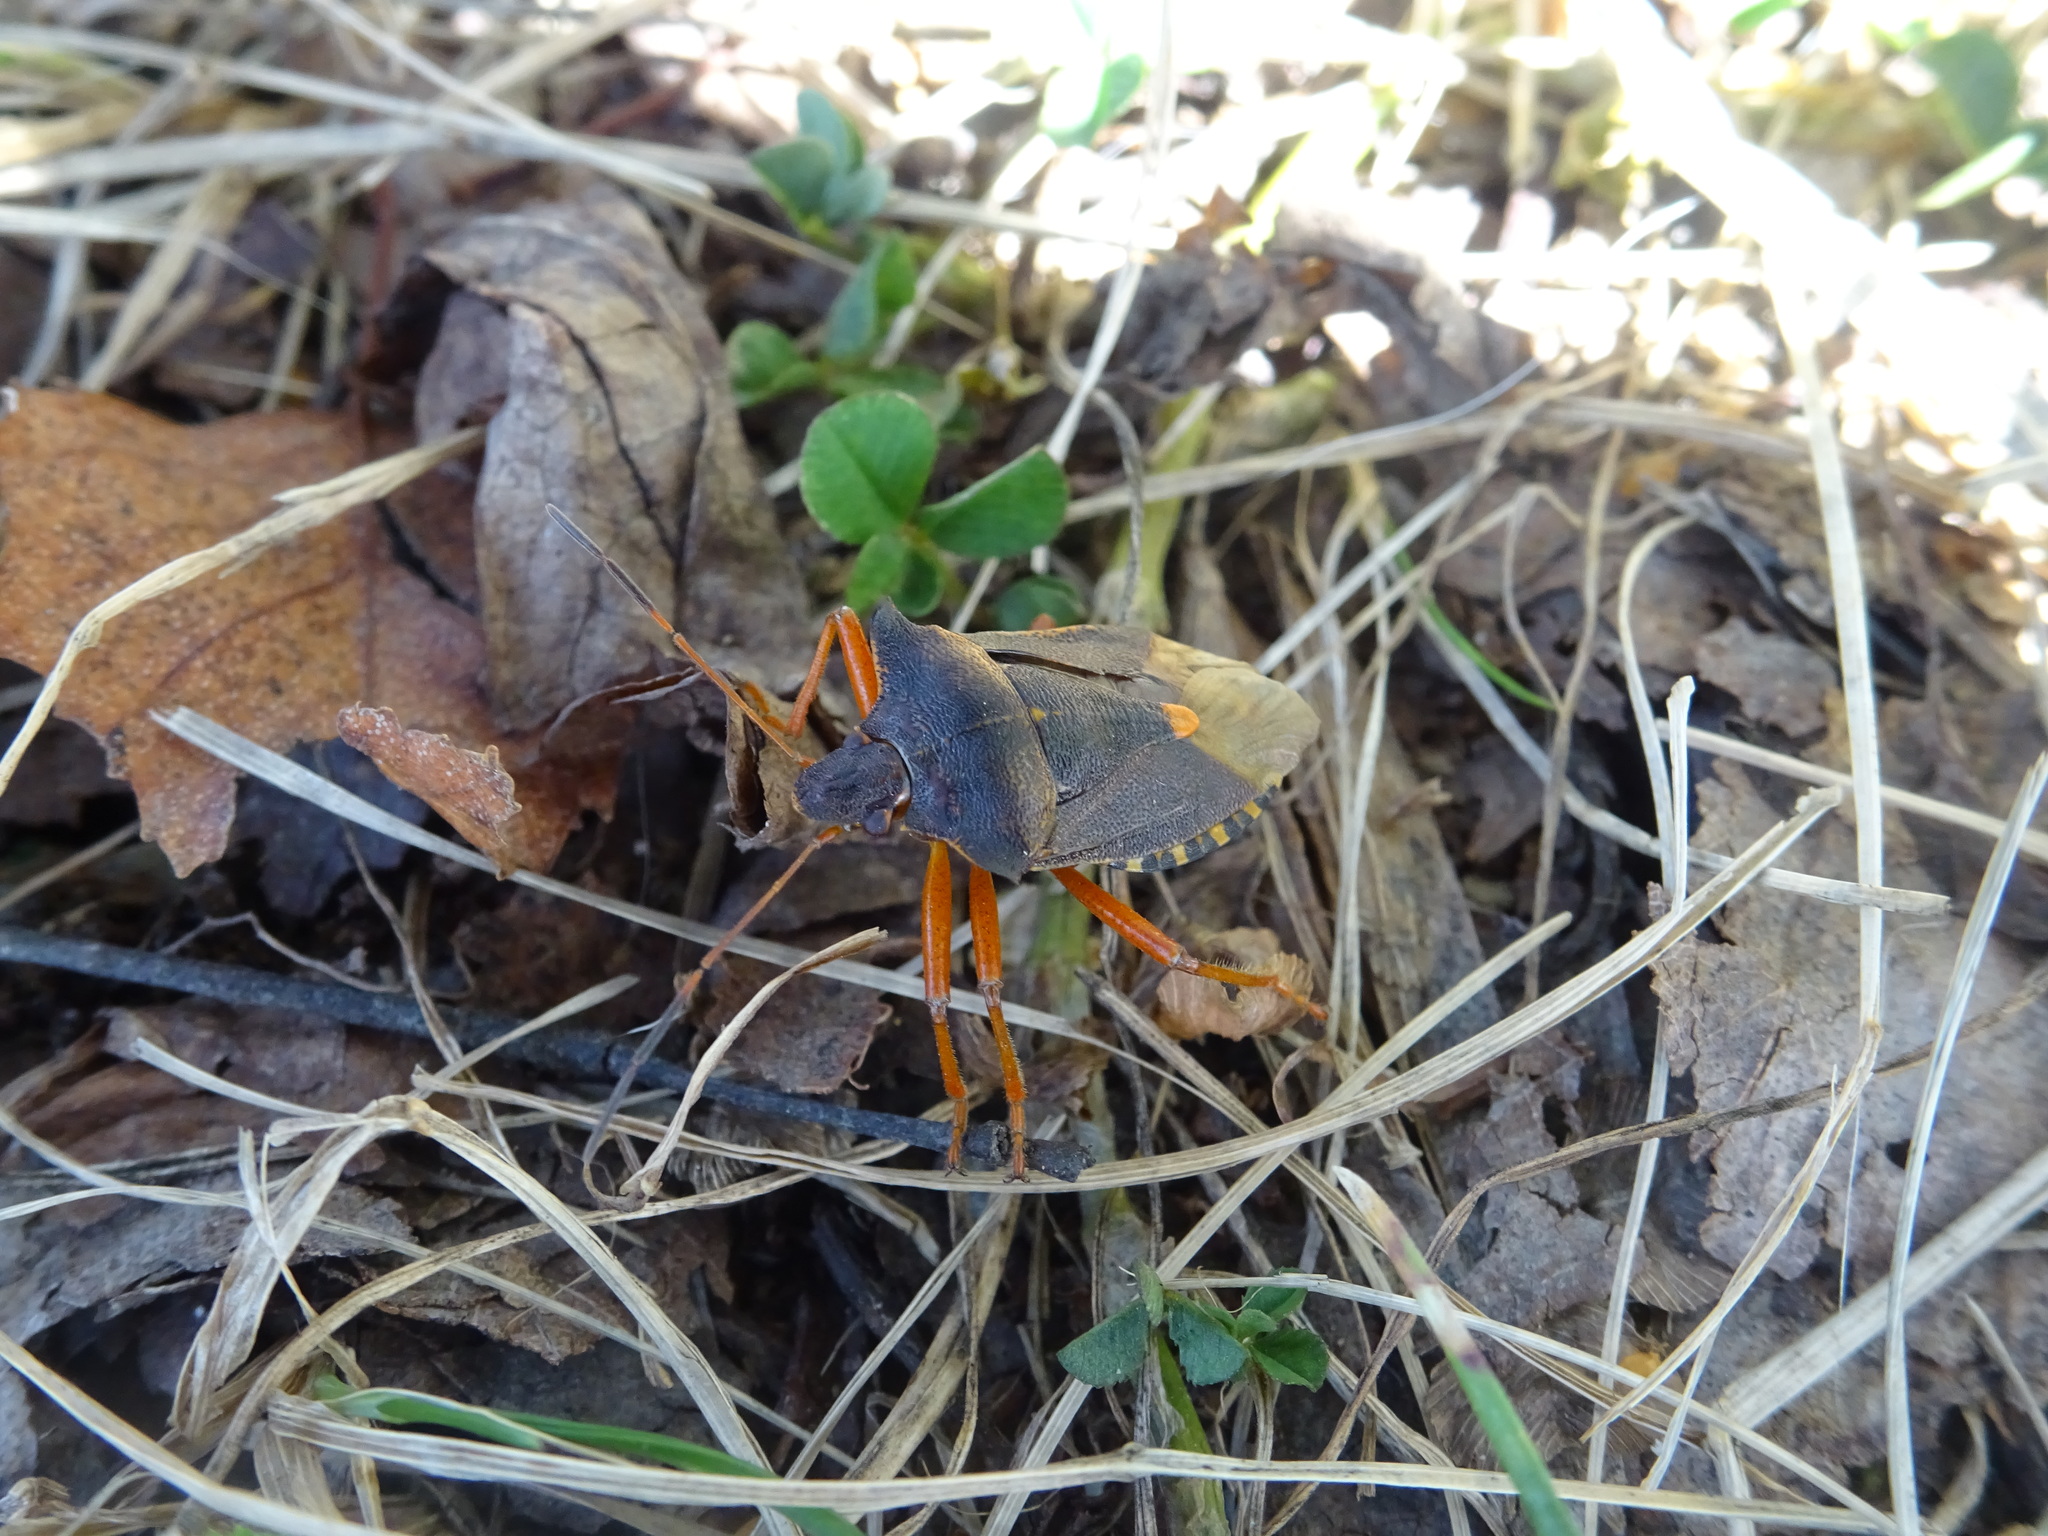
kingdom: Animalia
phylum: Arthropoda
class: Insecta
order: Hemiptera
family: Pentatomidae
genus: Pentatoma
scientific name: Pentatoma rufipes
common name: Forest bug
